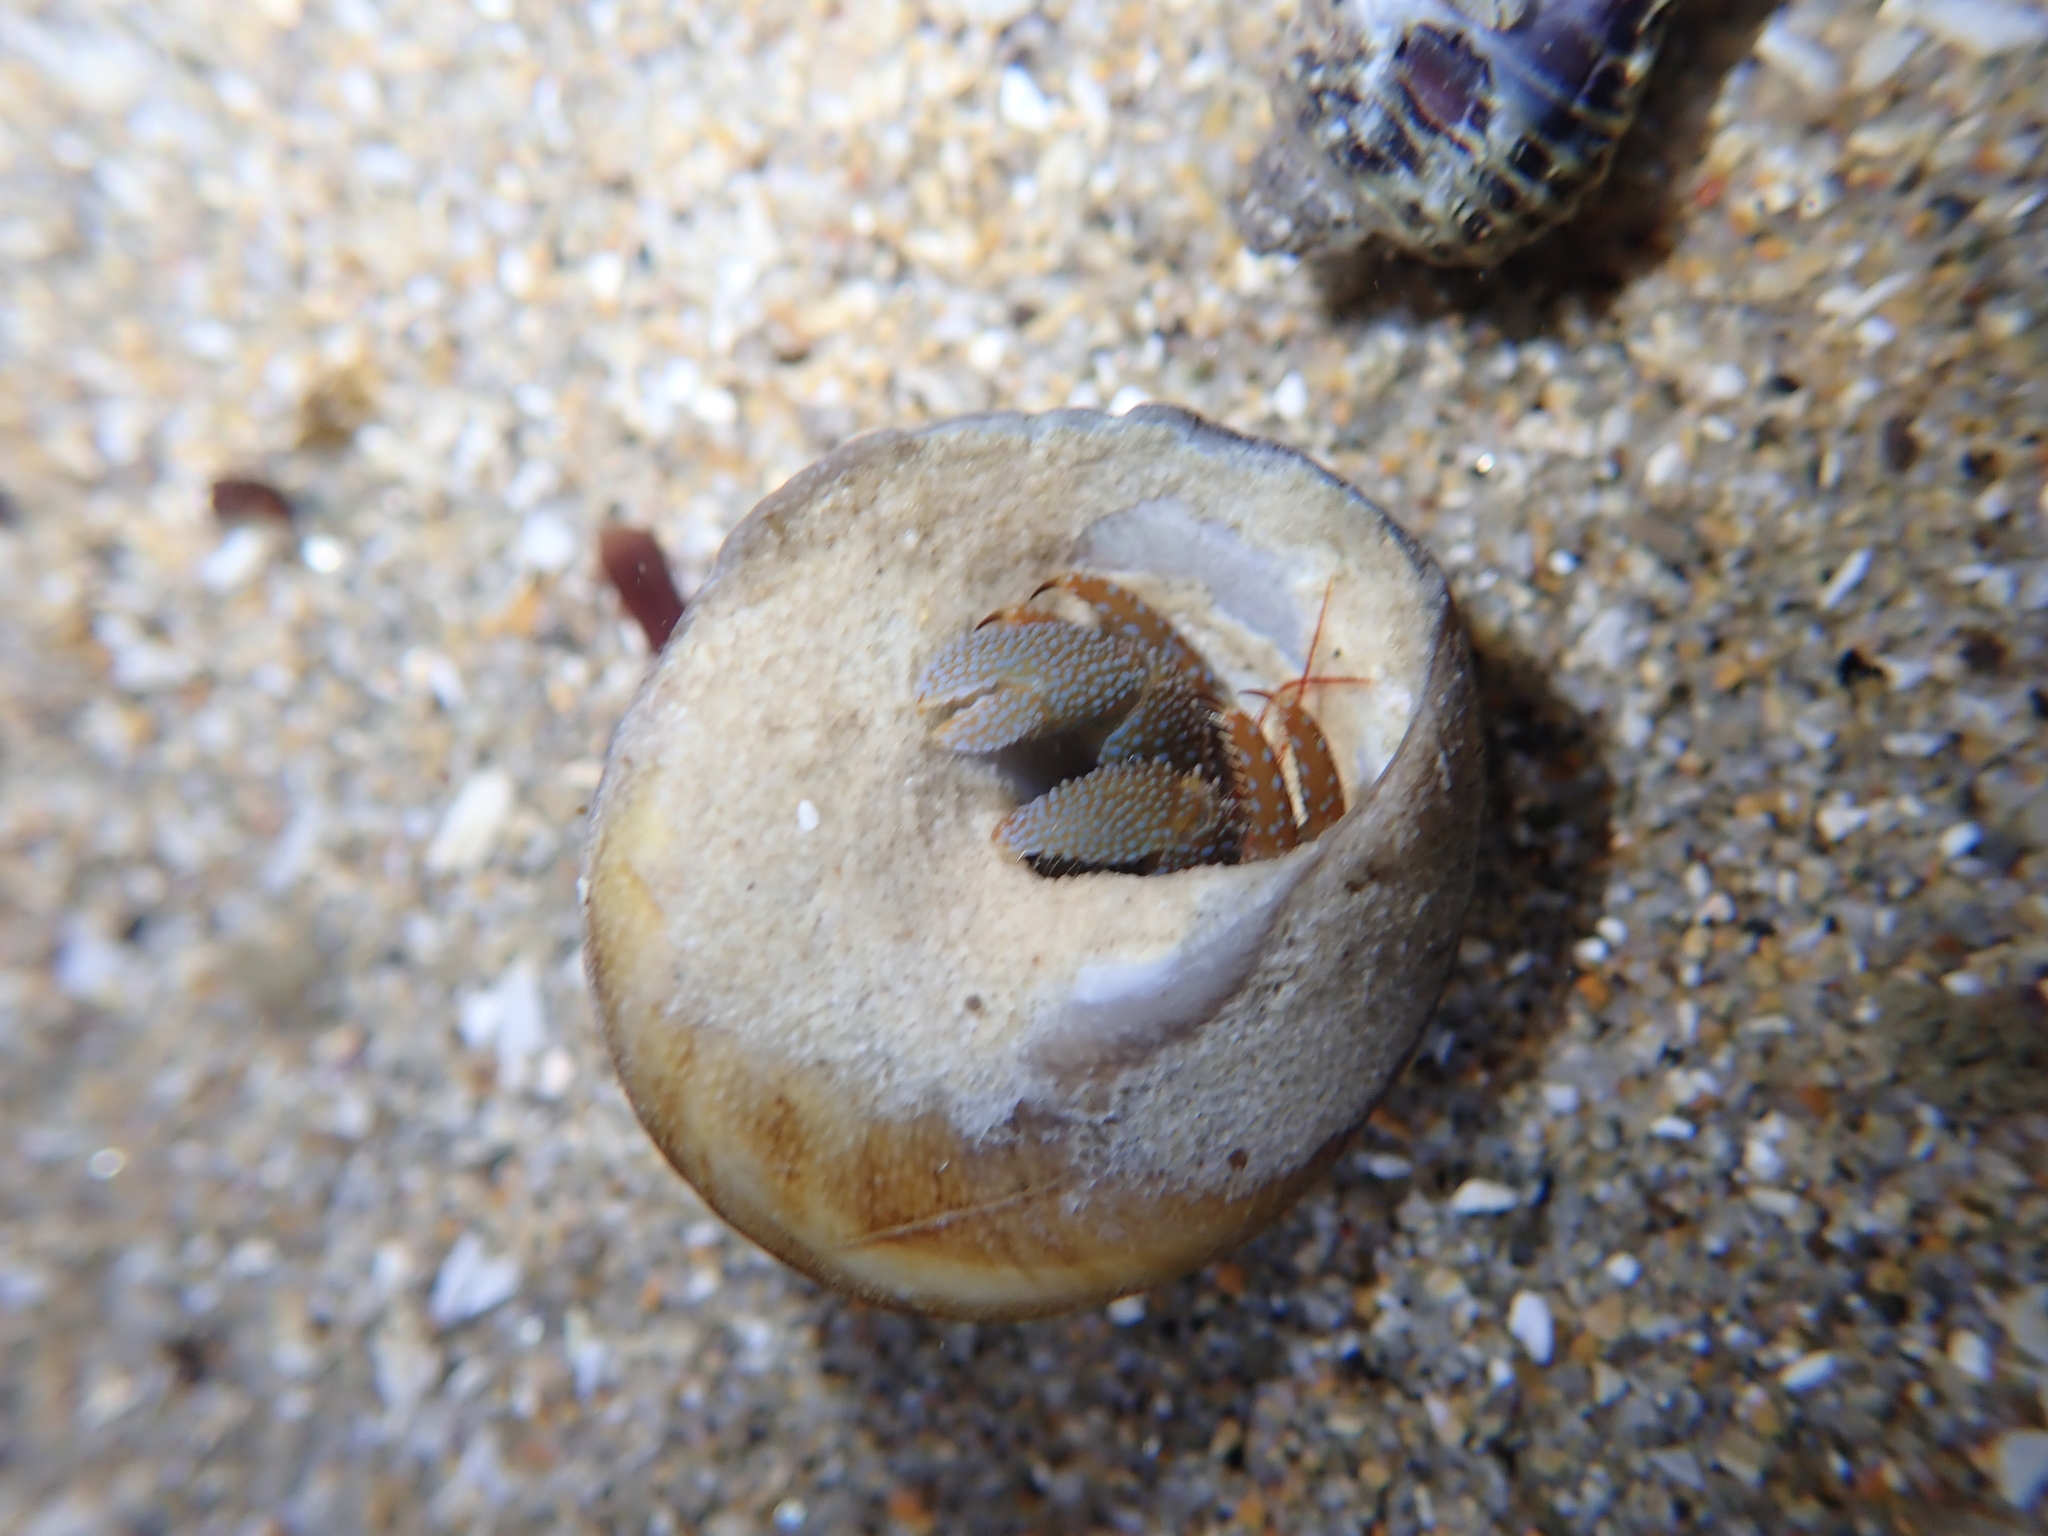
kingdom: Animalia
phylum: Arthropoda
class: Malacostraca
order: Decapoda
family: Paguridae
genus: Pagurus
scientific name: Pagurus granosimanus
